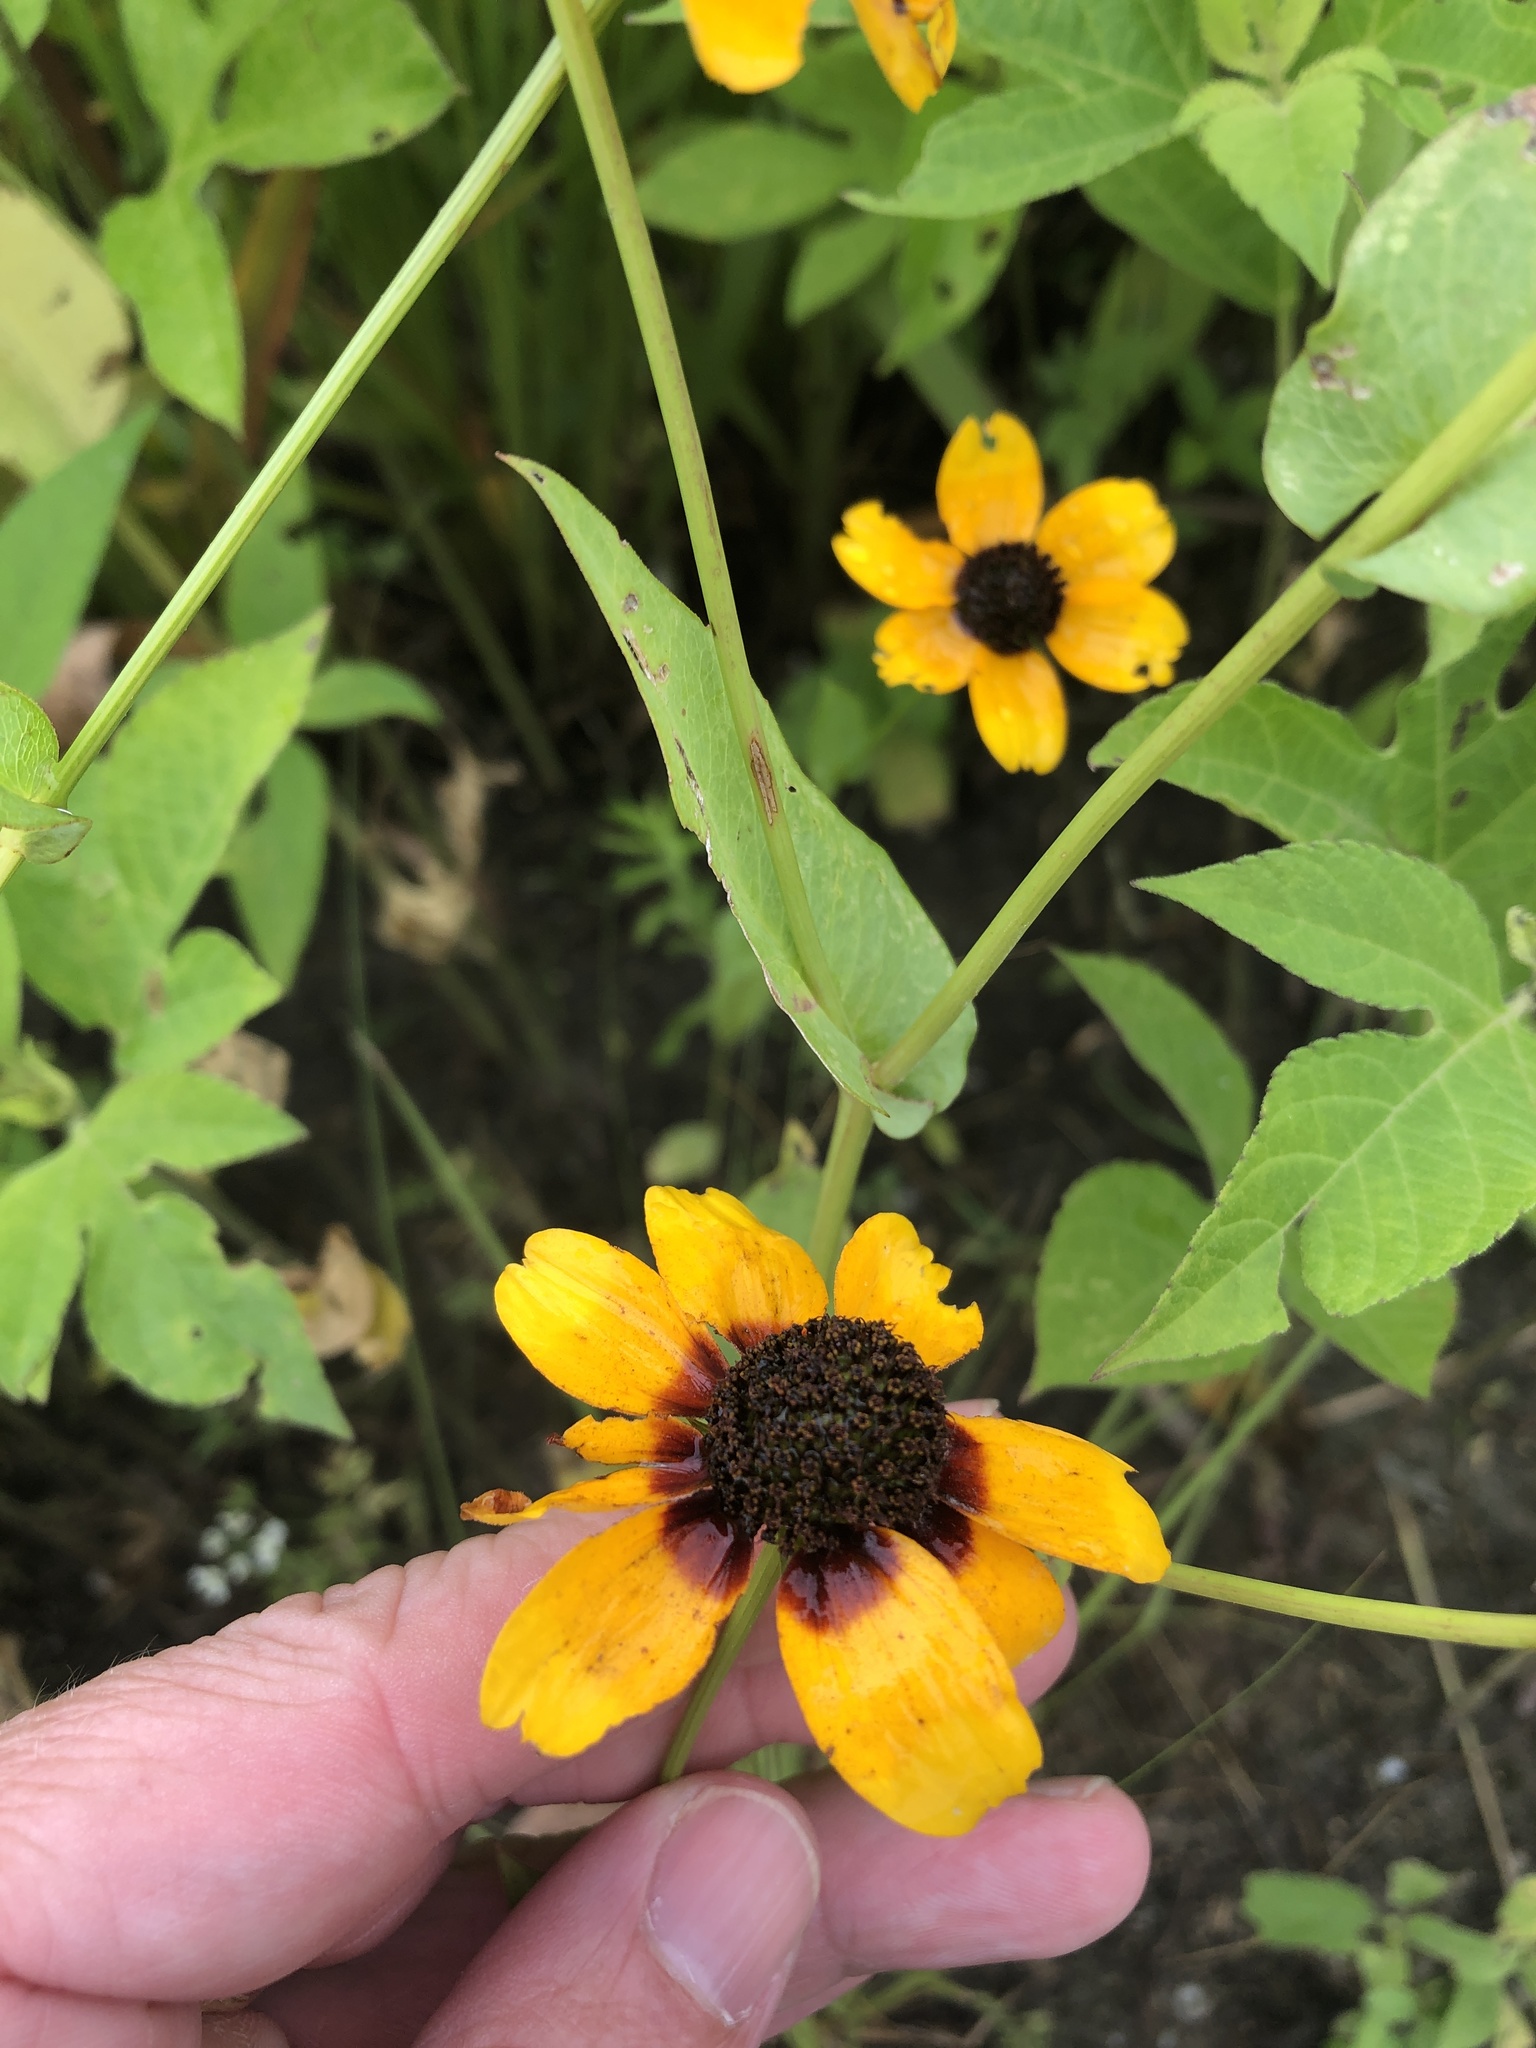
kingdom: Plantae
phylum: Tracheophyta
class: Magnoliopsida
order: Asterales
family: Asteraceae
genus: Rudbeckia
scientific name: Rudbeckia amplexicaulis
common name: Clasping-leaf coneflower
